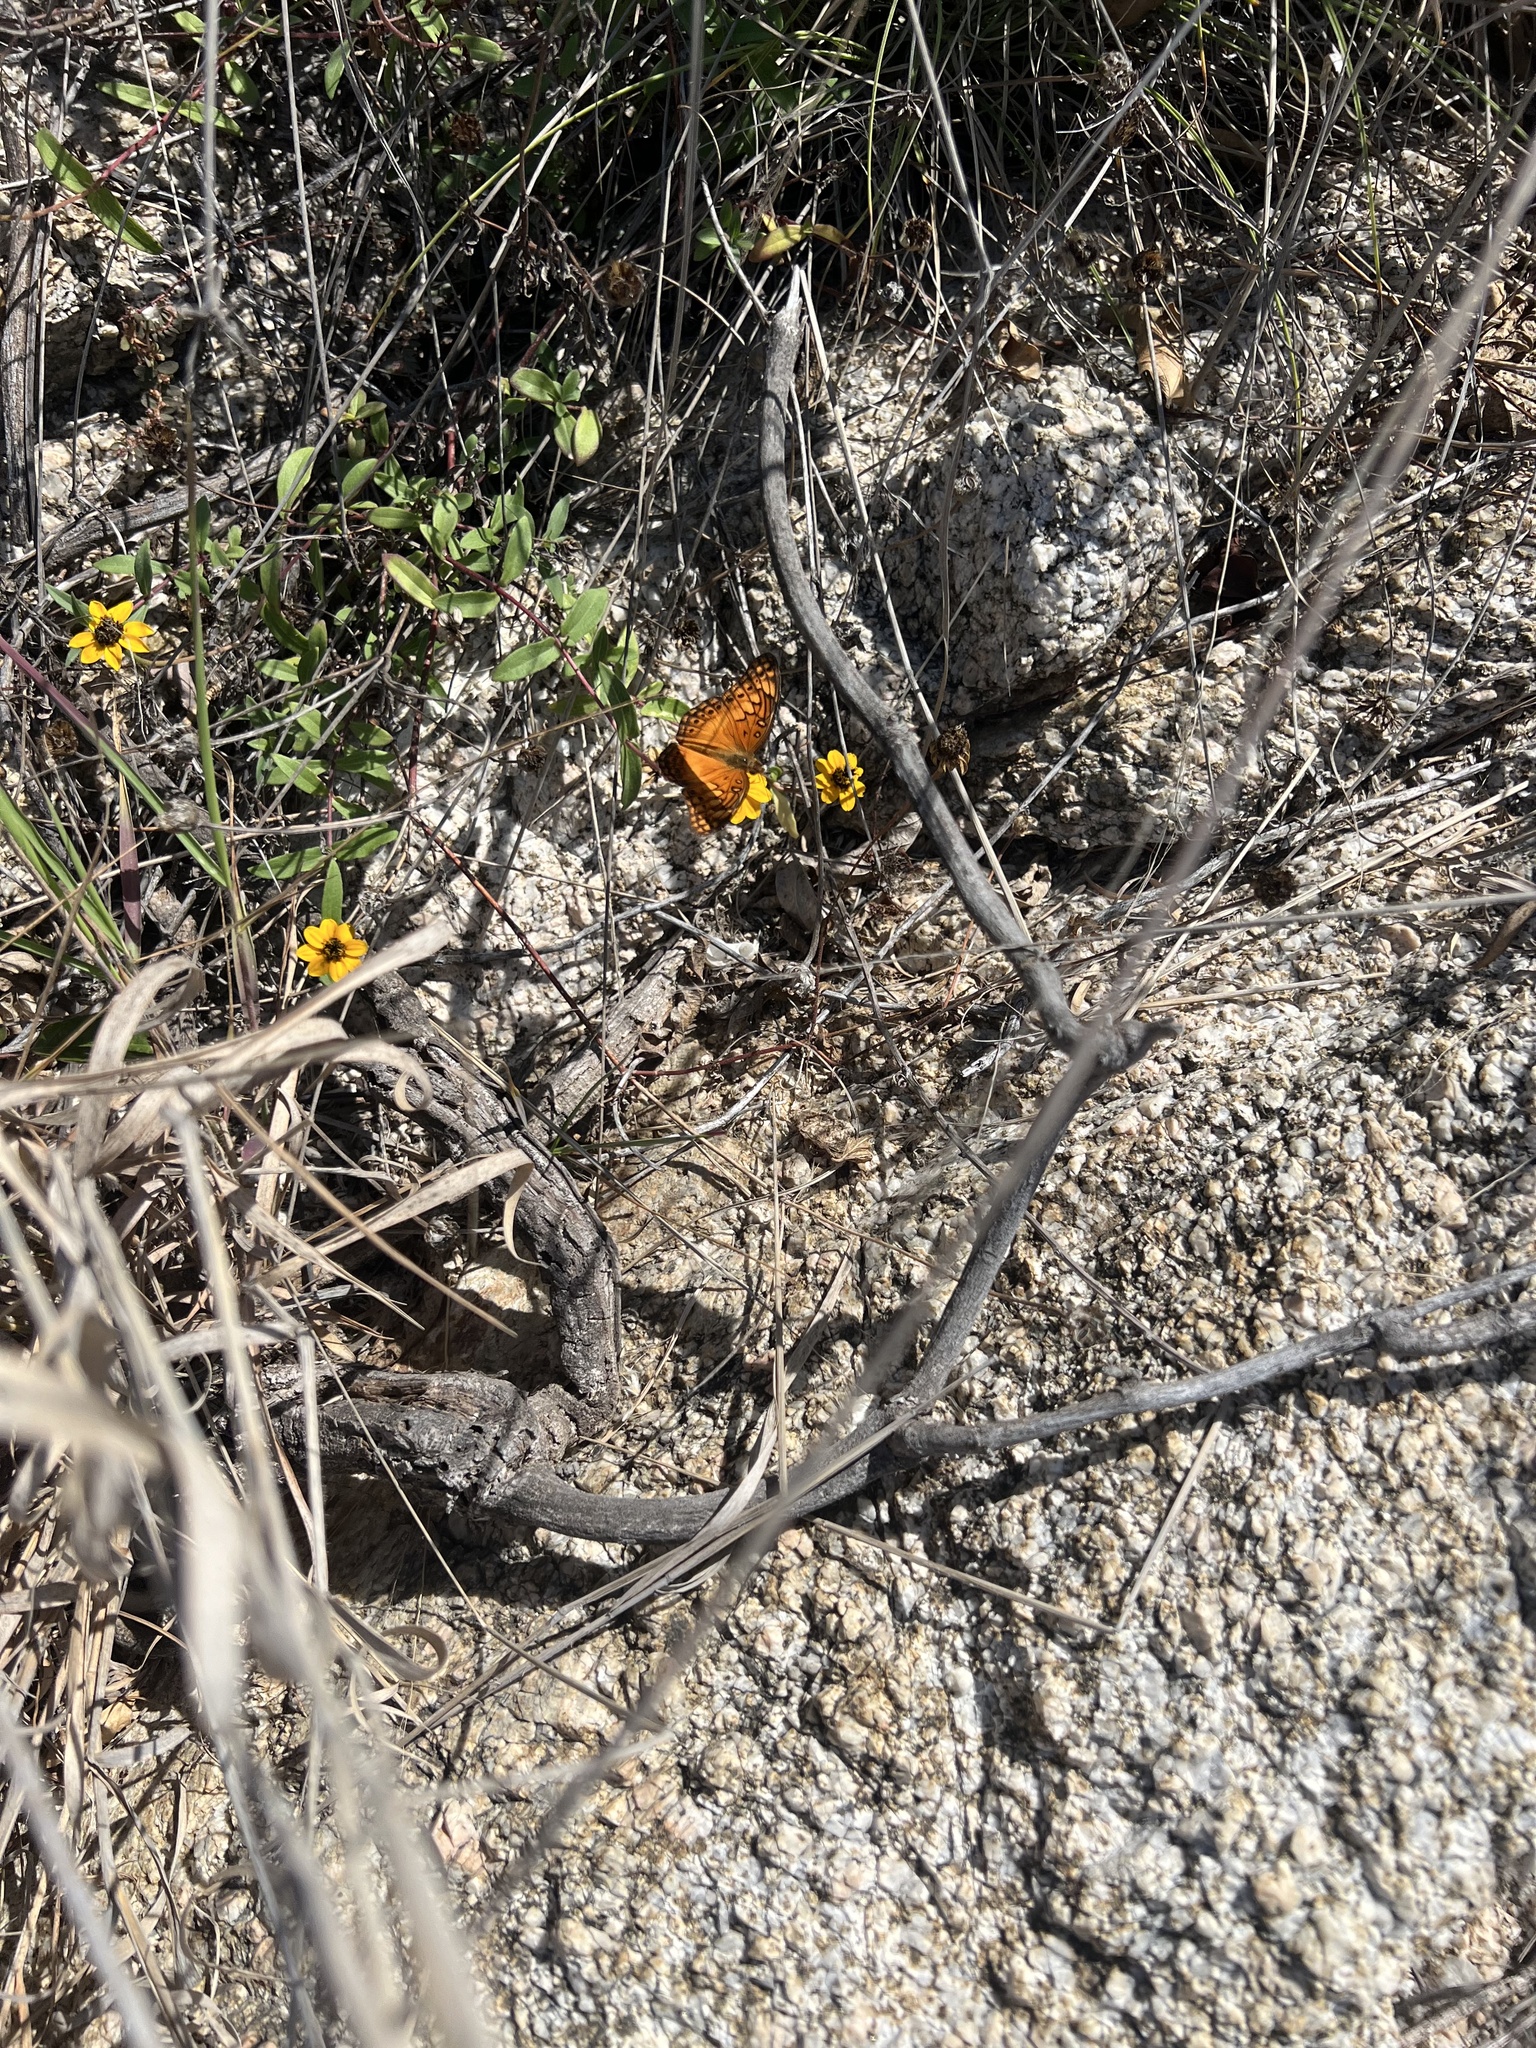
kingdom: Animalia
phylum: Arthropoda
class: Insecta
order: Lepidoptera
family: Nymphalidae
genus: Euptoieta
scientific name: Euptoieta hegesia
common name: Mexican fritillary
